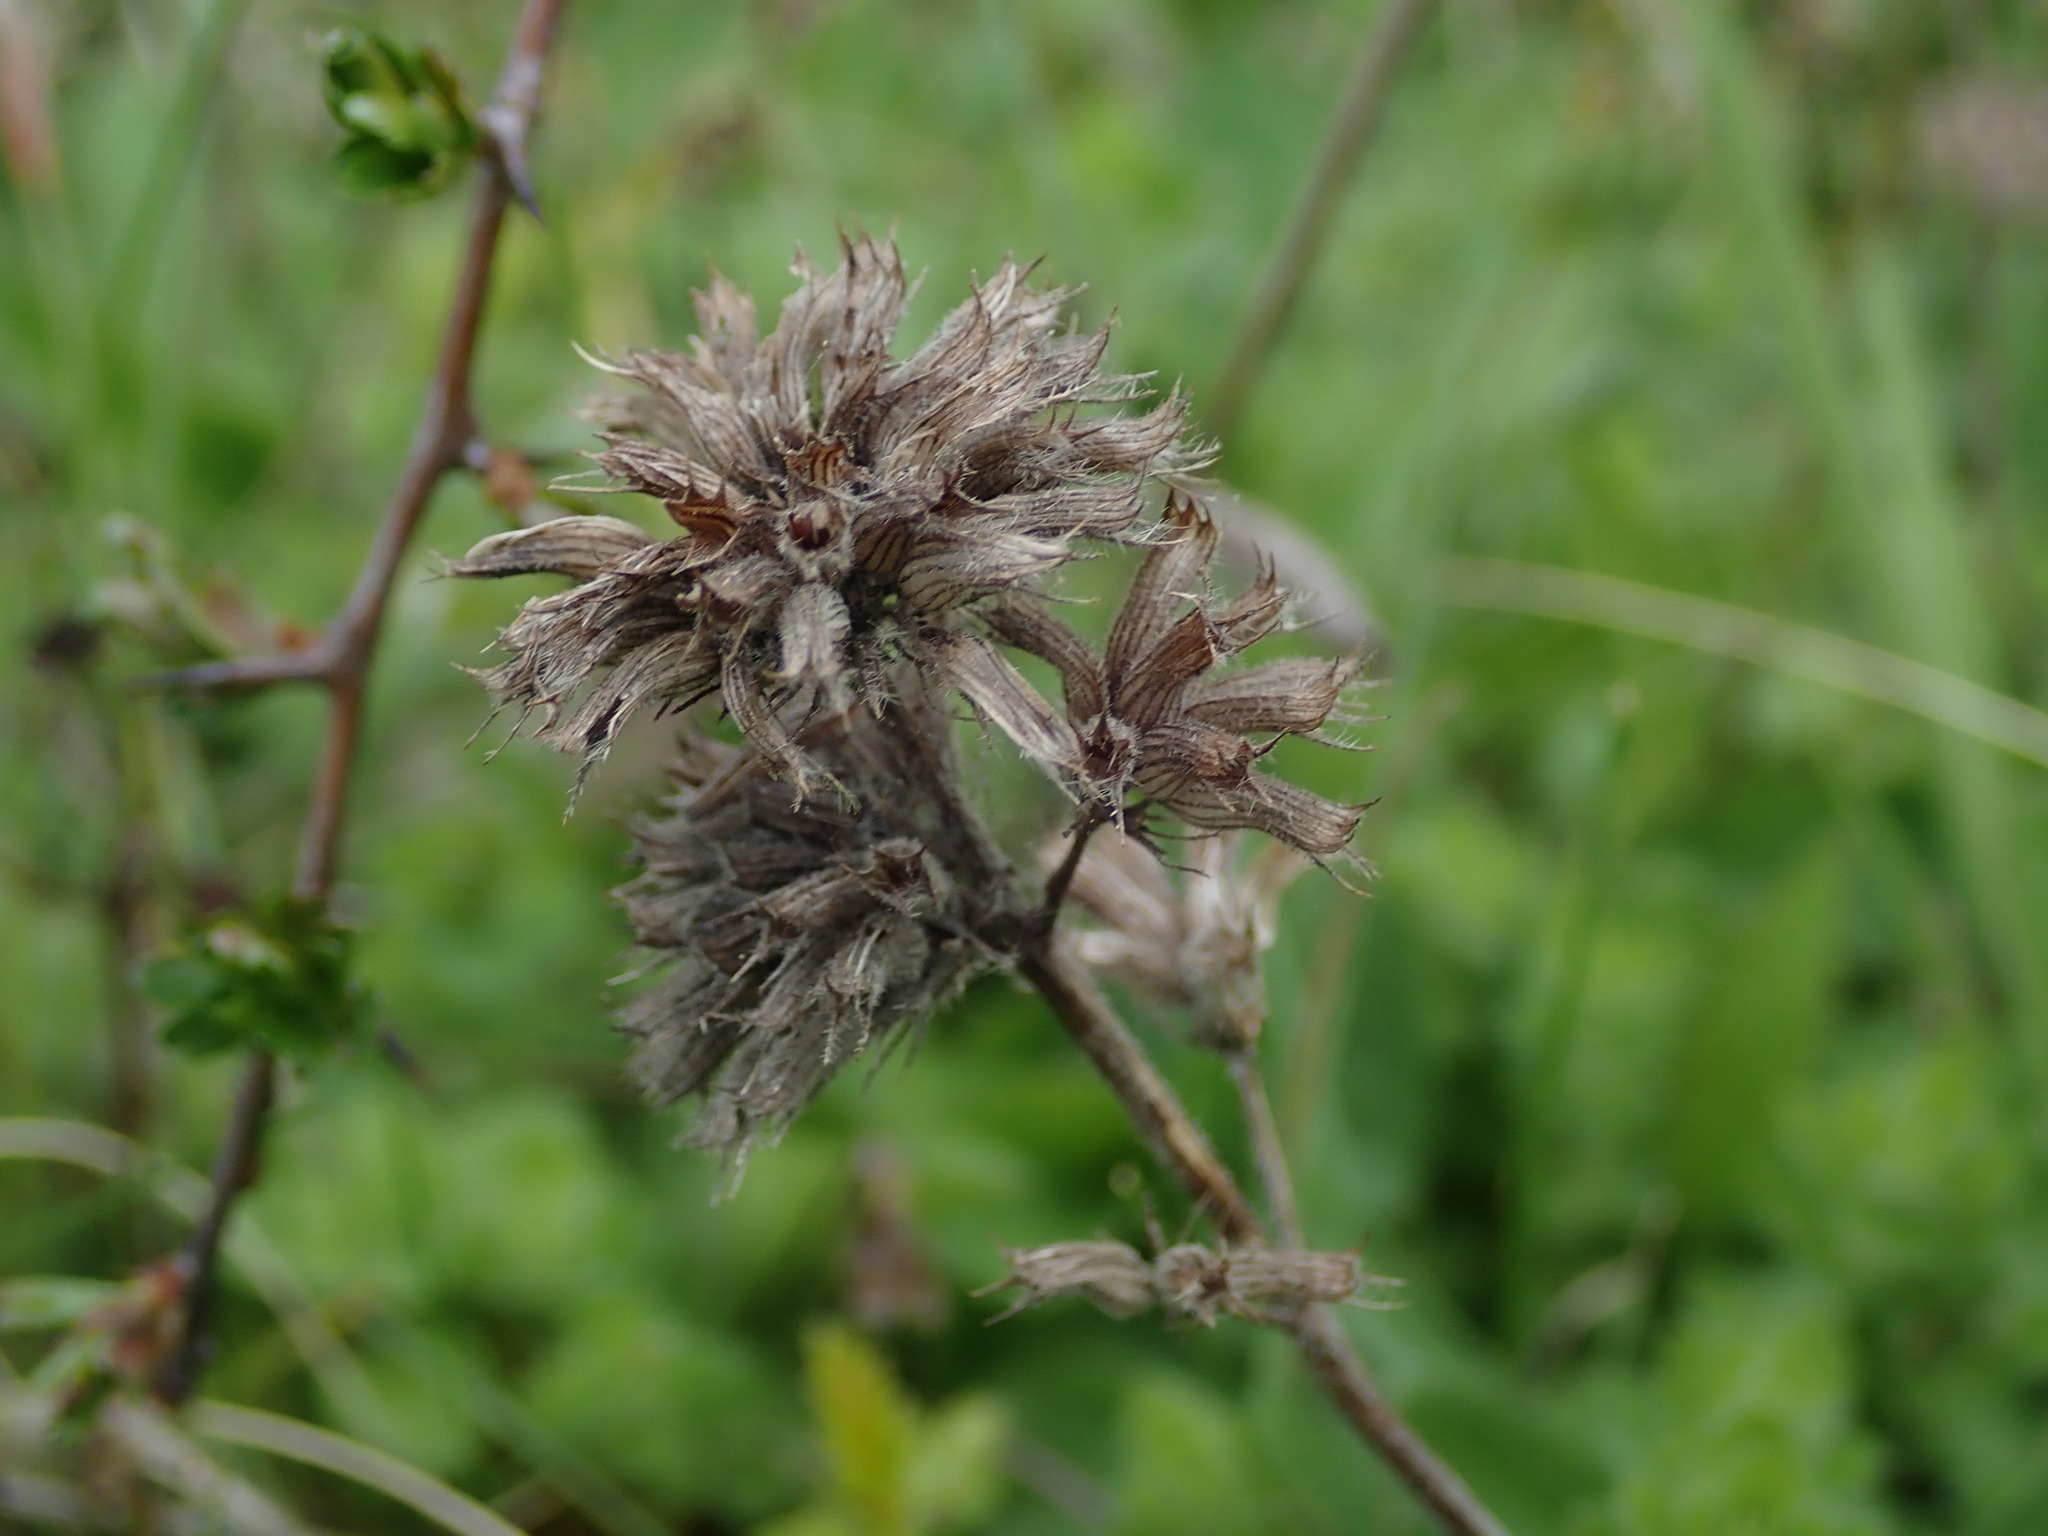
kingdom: Plantae
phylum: Tracheophyta
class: Magnoliopsida
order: Lamiales
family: Lamiaceae
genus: Clinopodium
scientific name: Clinopodium vulgare
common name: Wild basil
